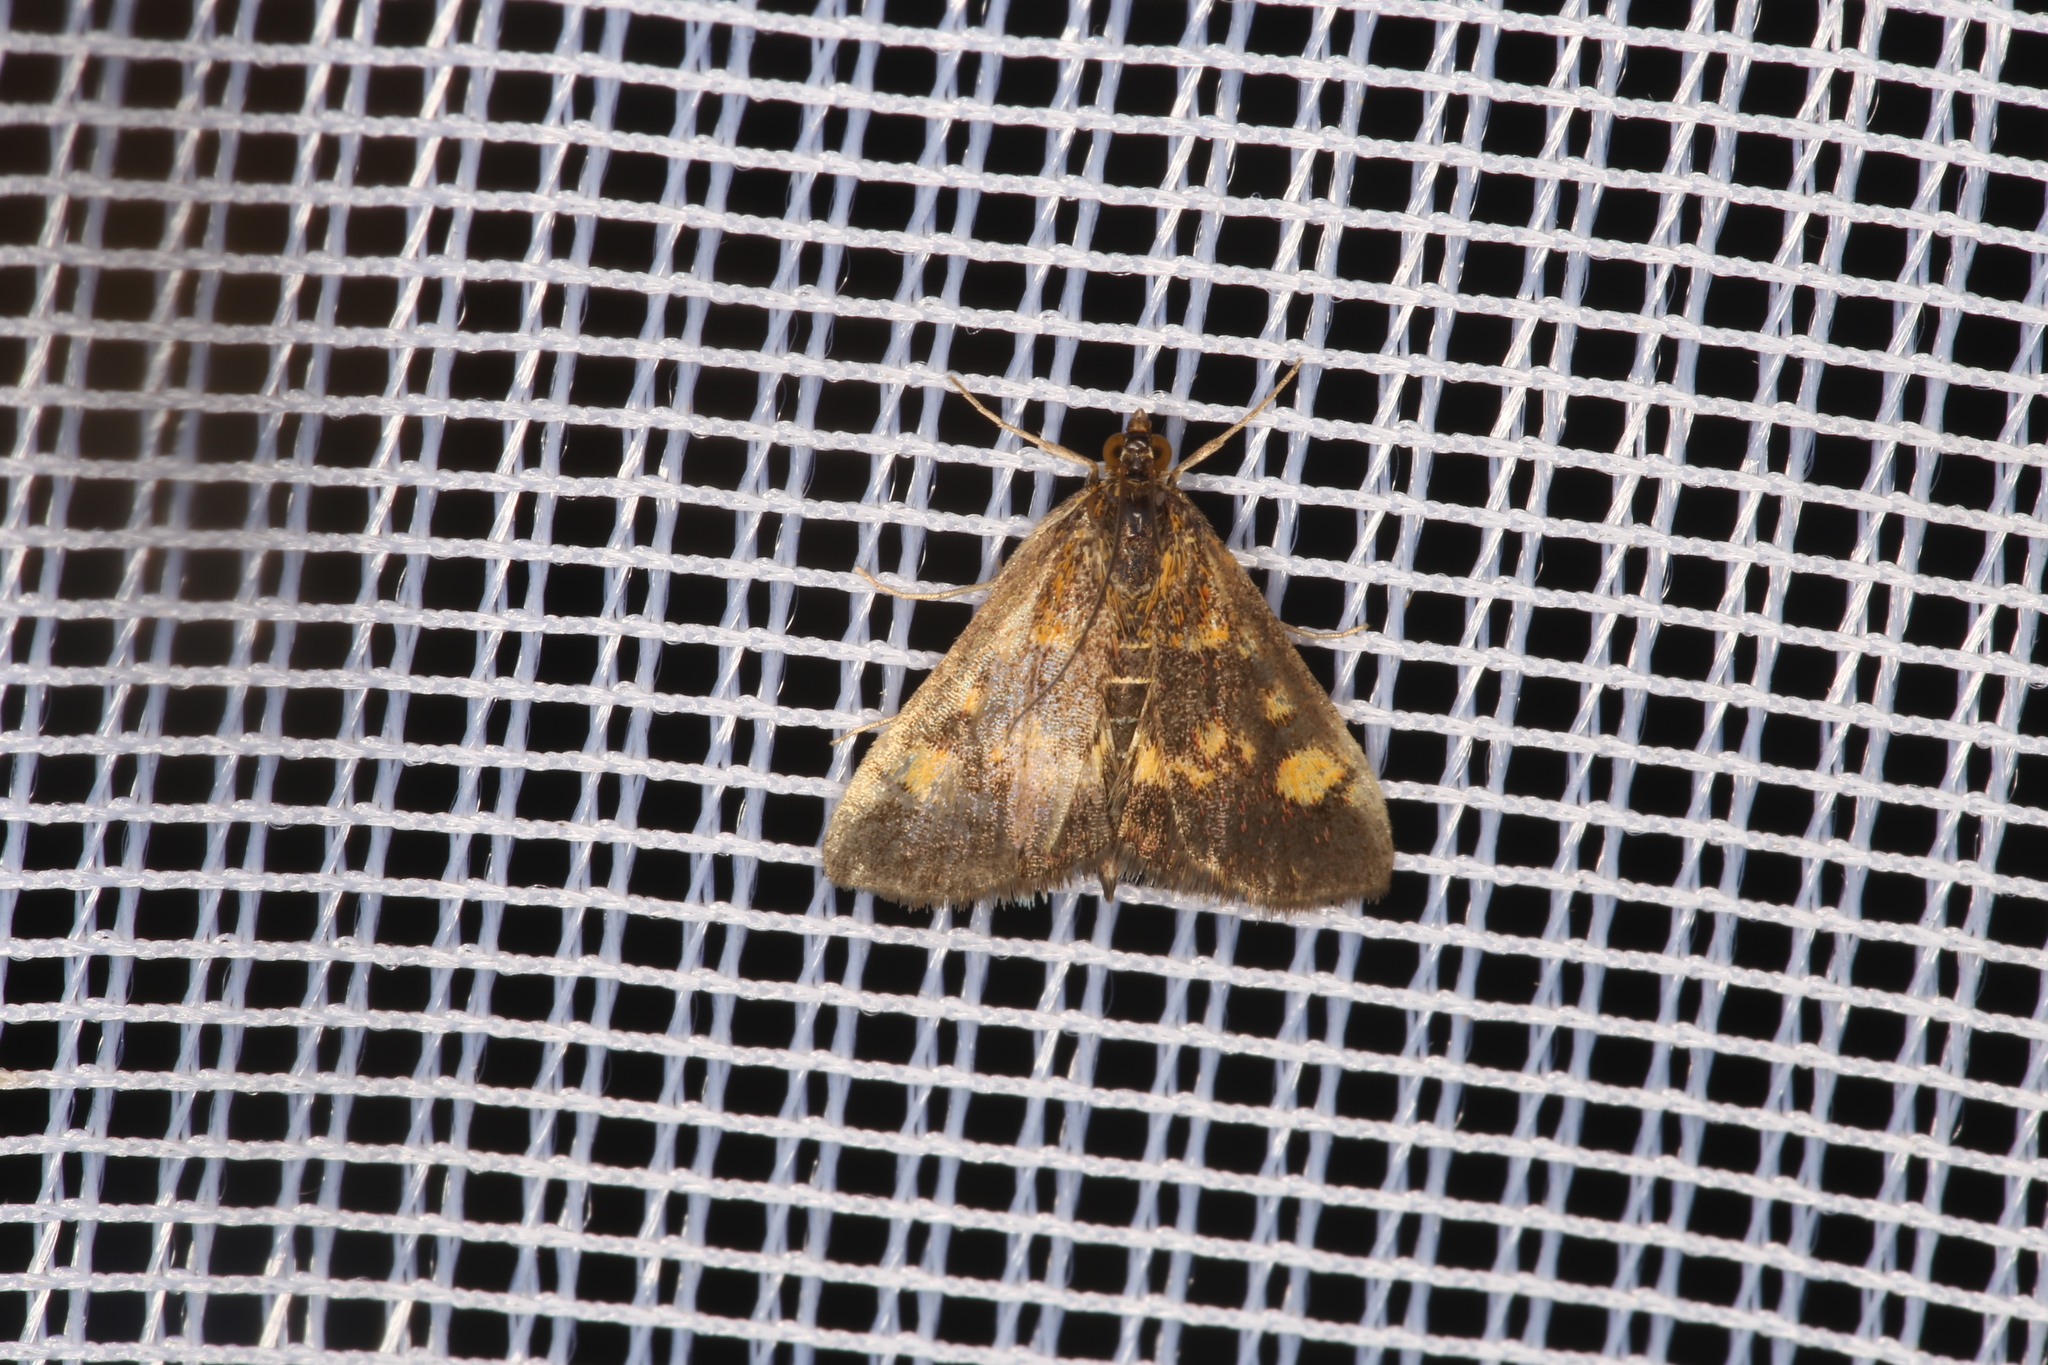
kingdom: Animalia
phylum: Arthropoda
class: Insecta
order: Lepidoptera
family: Crambidae
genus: Pyrausta
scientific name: Pyrausta aurata
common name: Small purple & gold
